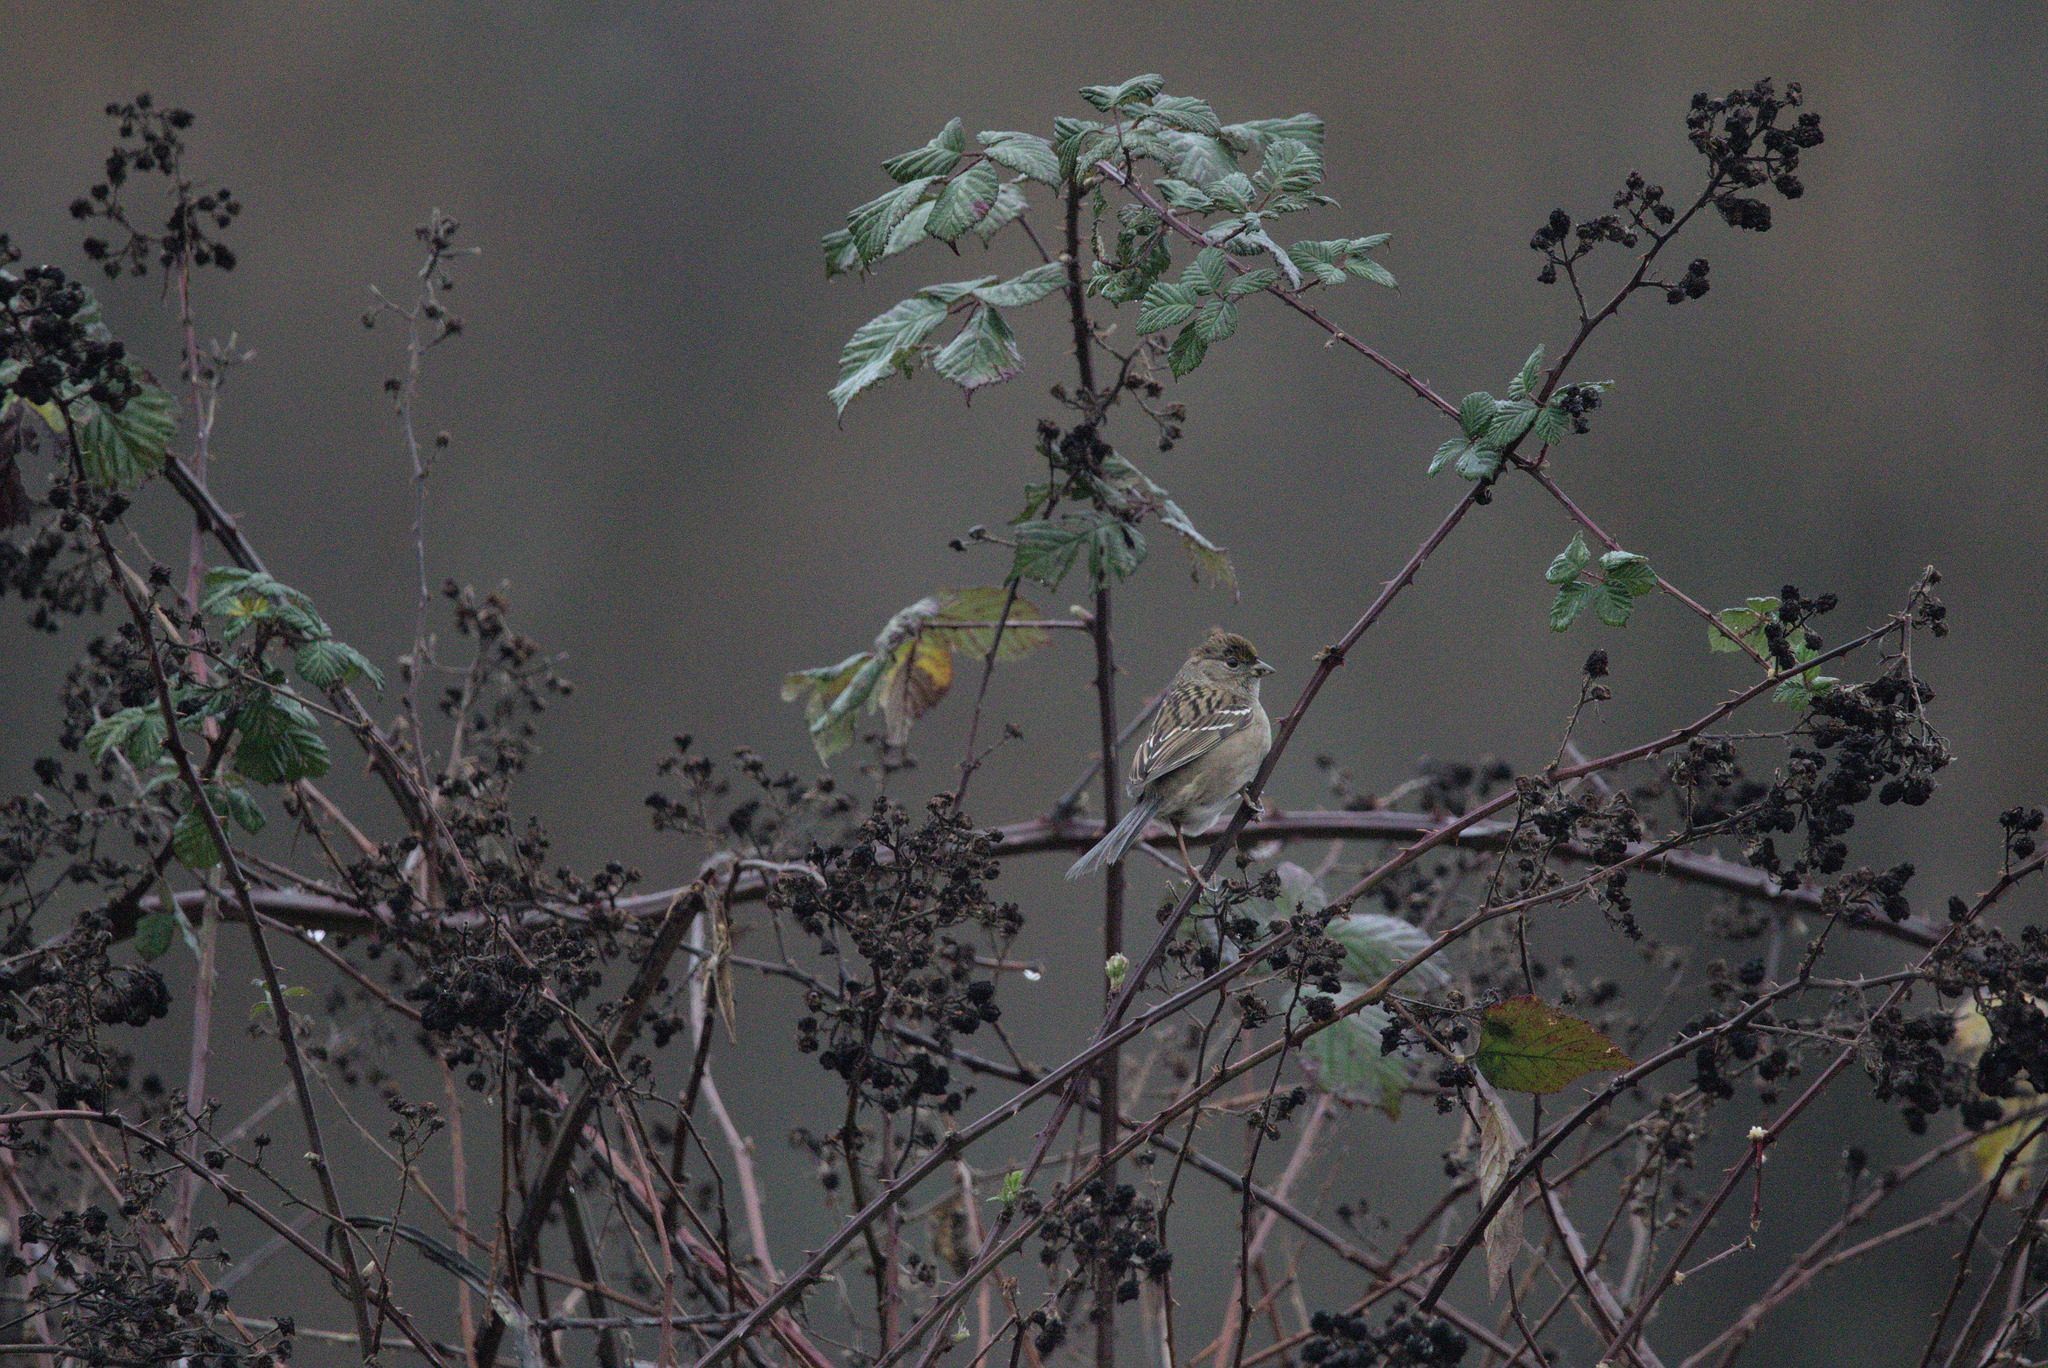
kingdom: Animalia
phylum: Chordata
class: Aves
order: Passeriformes
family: Passerellidae
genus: Zonotrichia
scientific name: Zonotrichia atricapilla
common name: Golden-crowned sparrow
